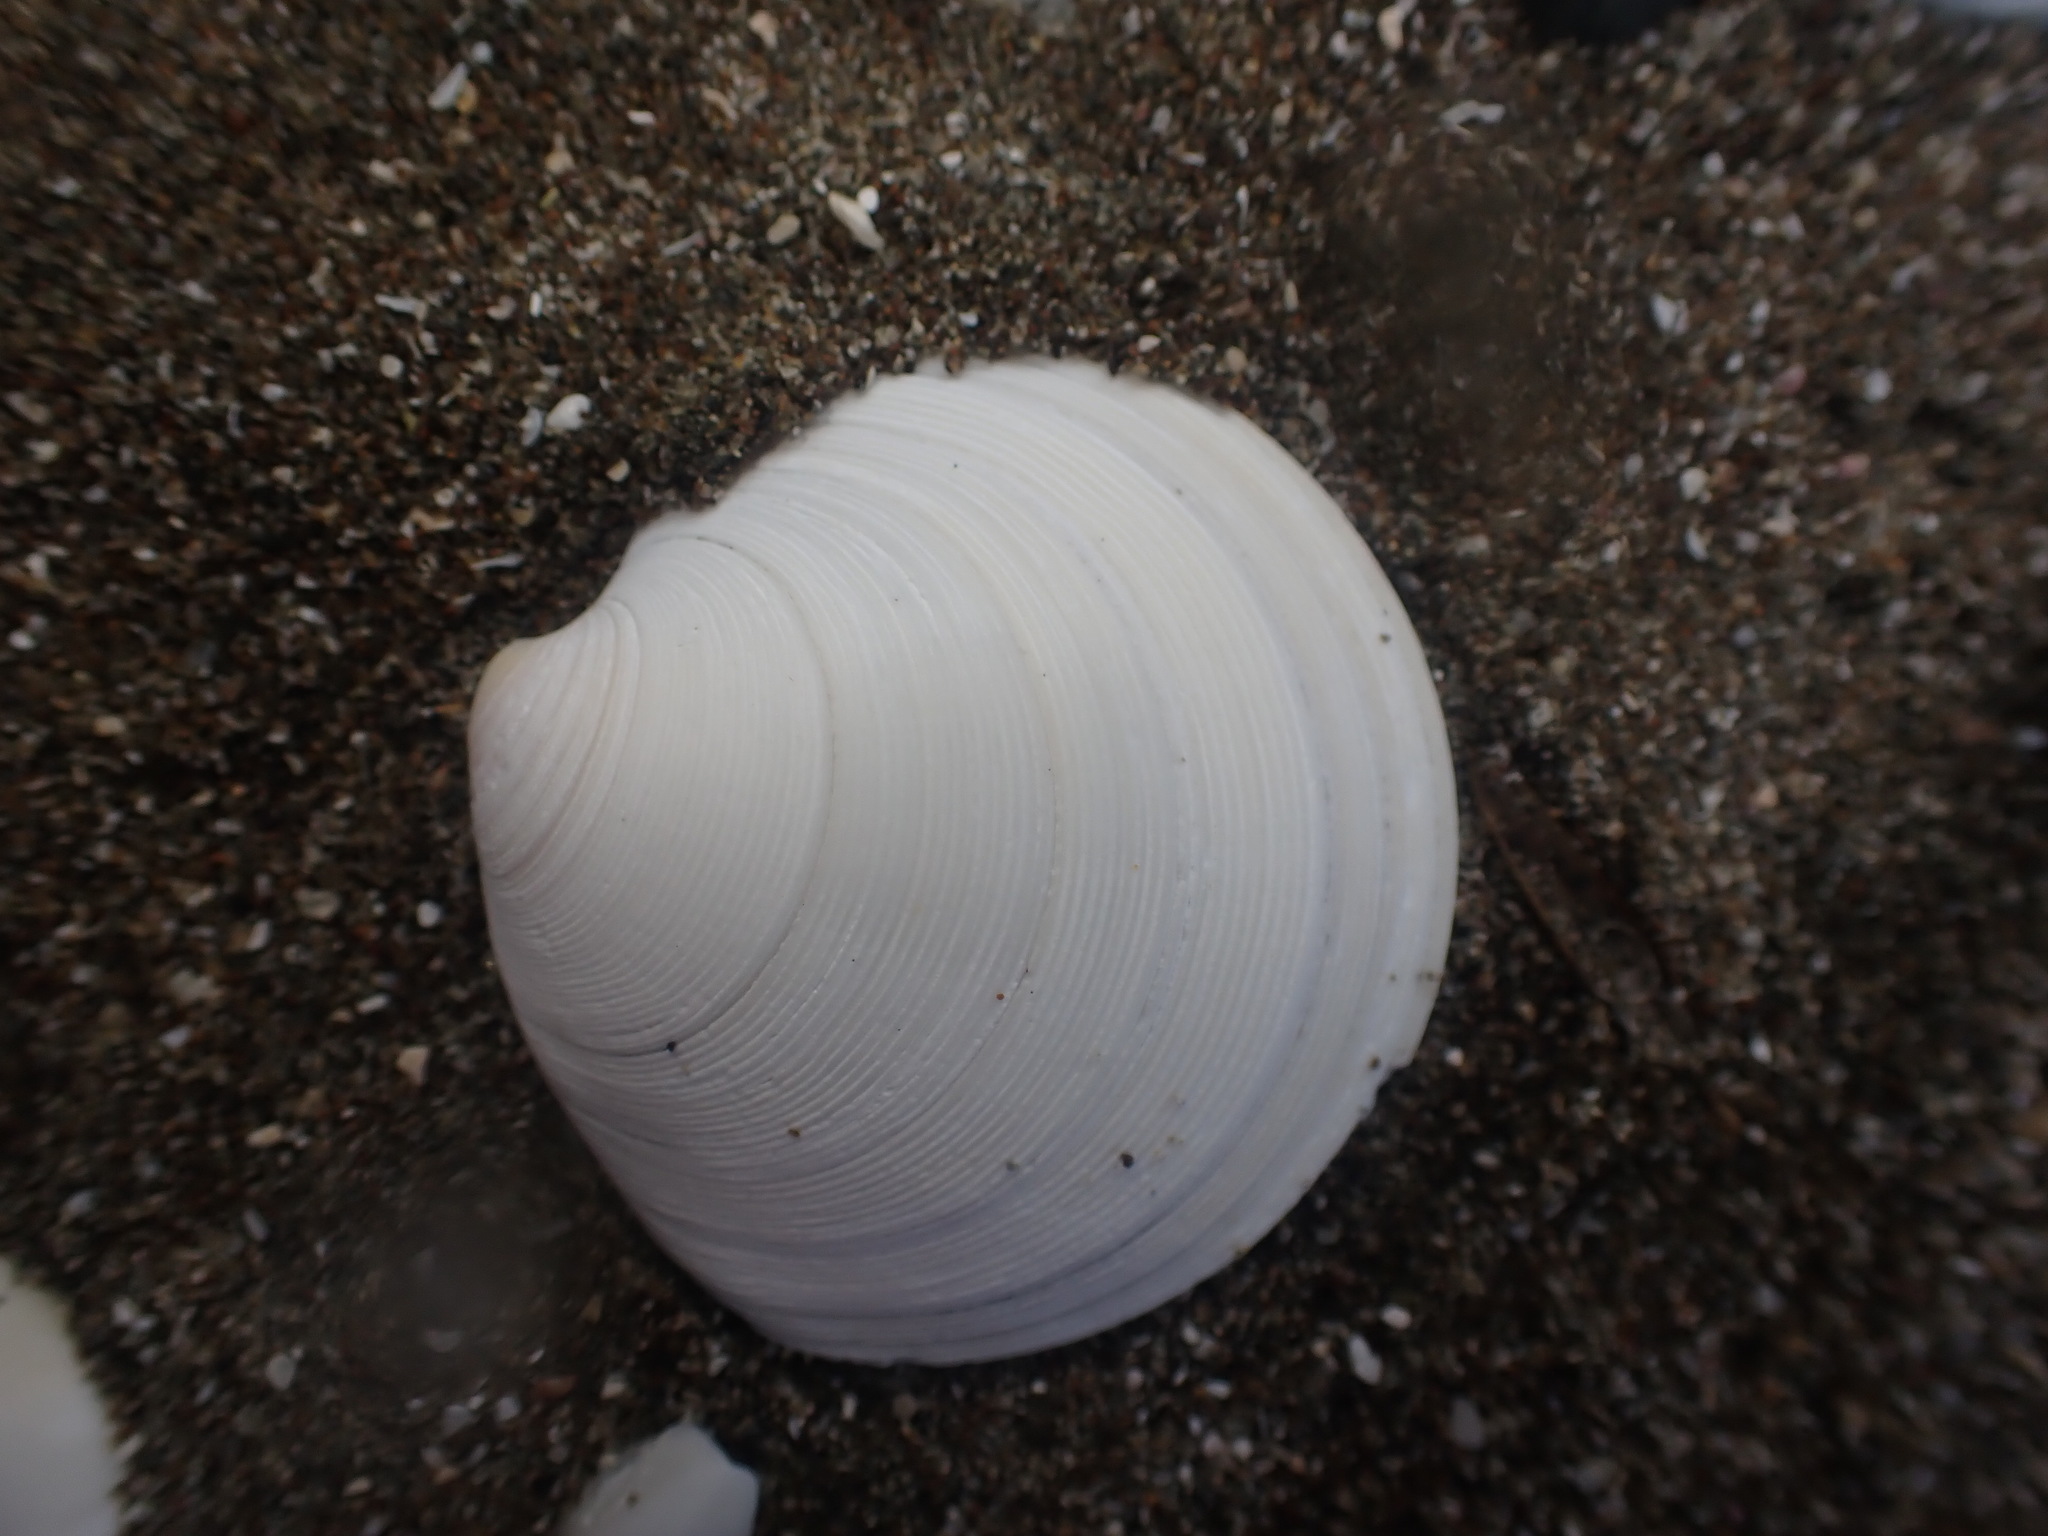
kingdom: Animalia
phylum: Mollusca
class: Bivalvia
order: Venerida
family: Veneridae
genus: Dosinia
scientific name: Dosinia subrosea
